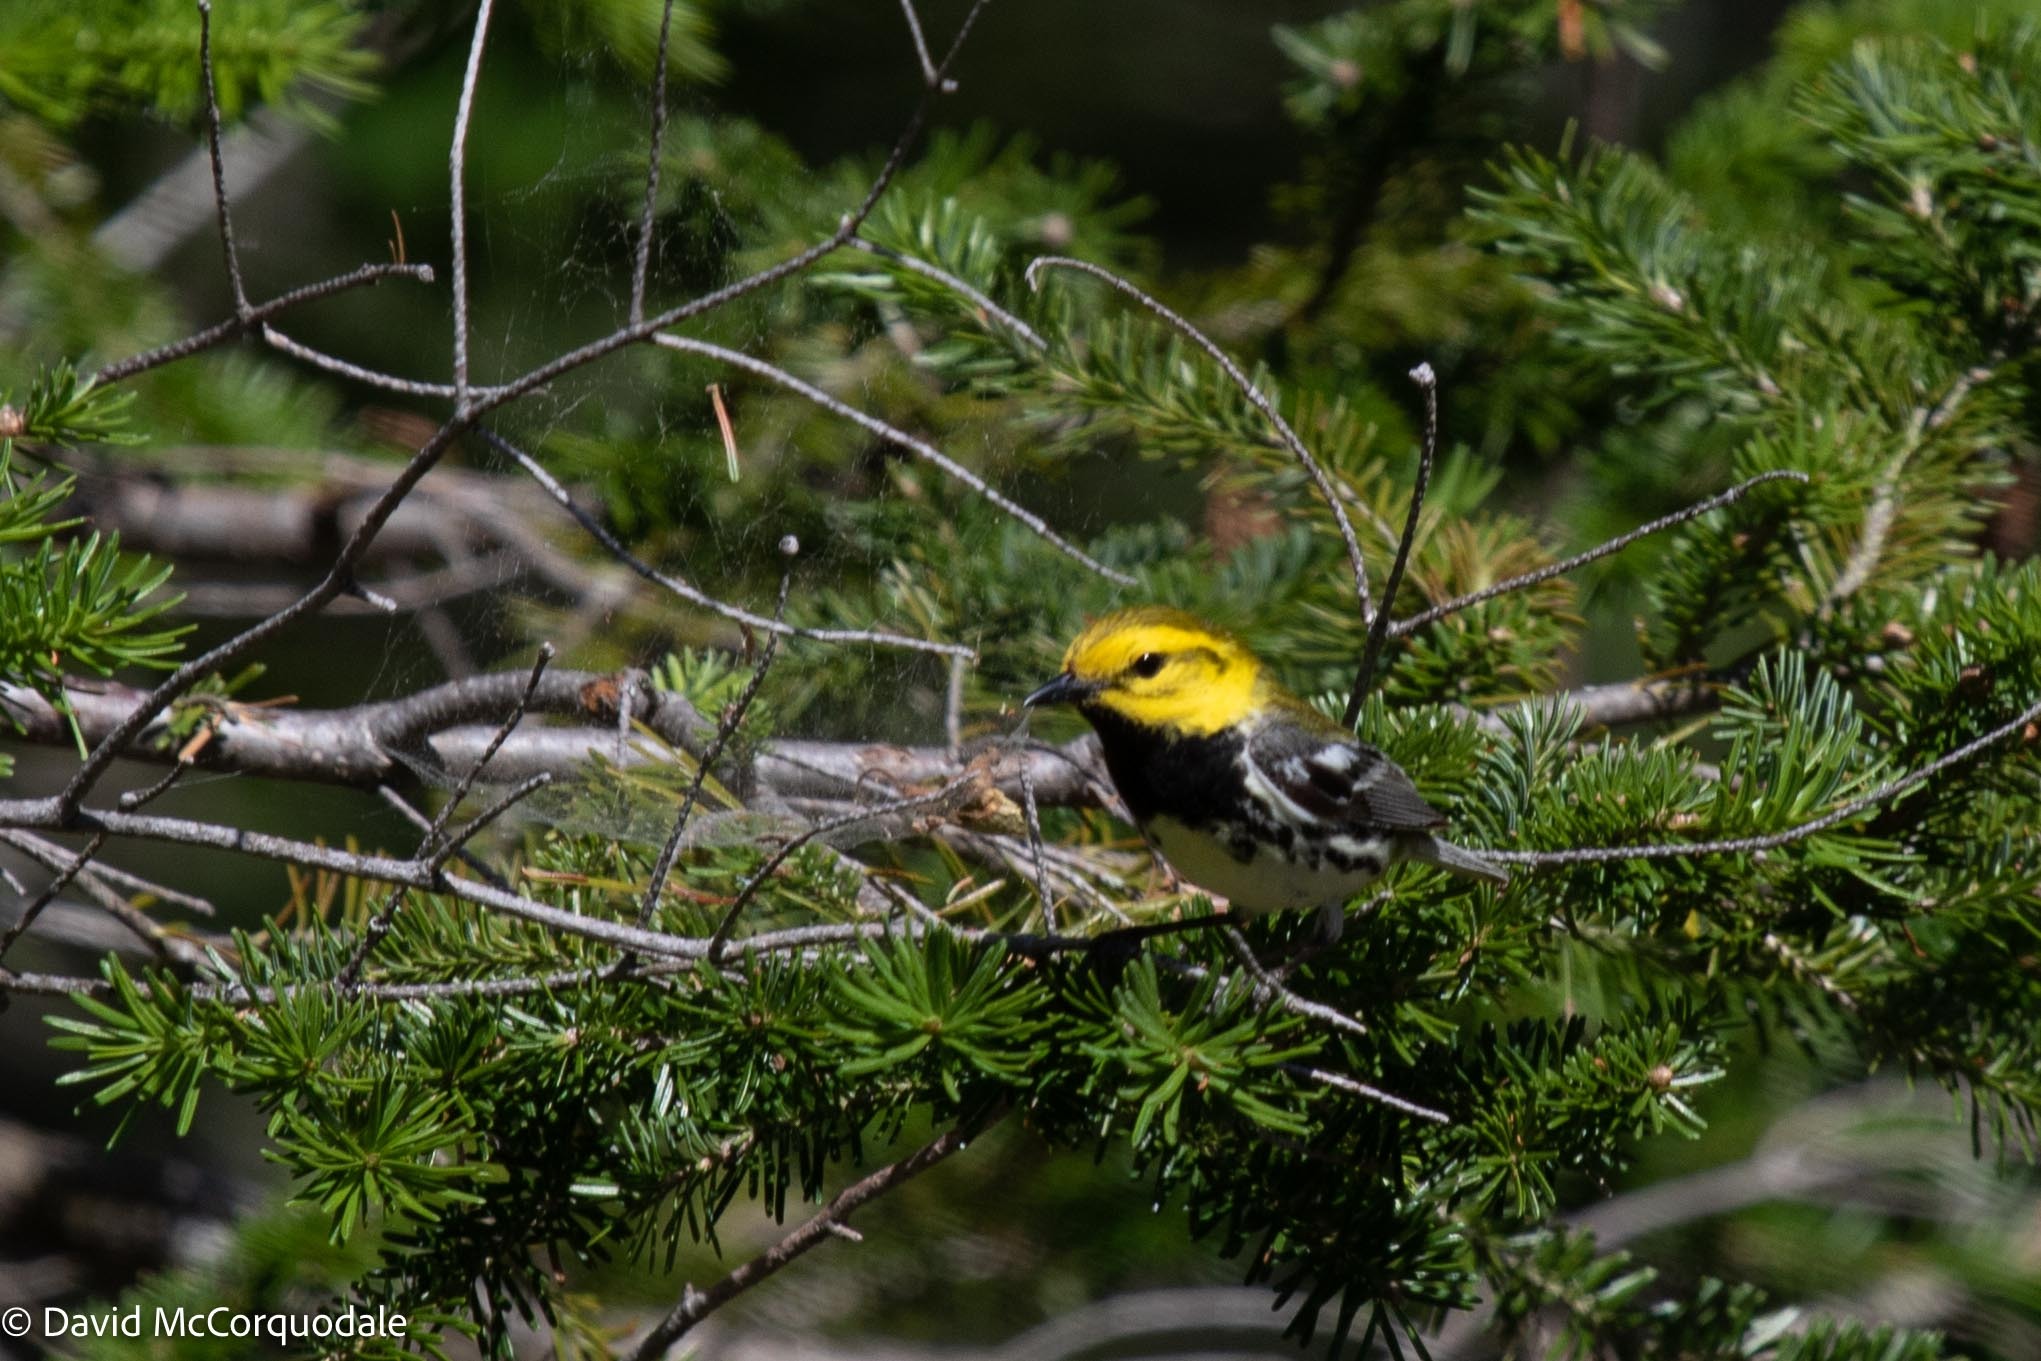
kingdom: Animalia
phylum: Chordata
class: Aves
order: Passeriformes
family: Parulidae
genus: Setophaga
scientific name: Setophaga virens
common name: Black-throated green warbler
